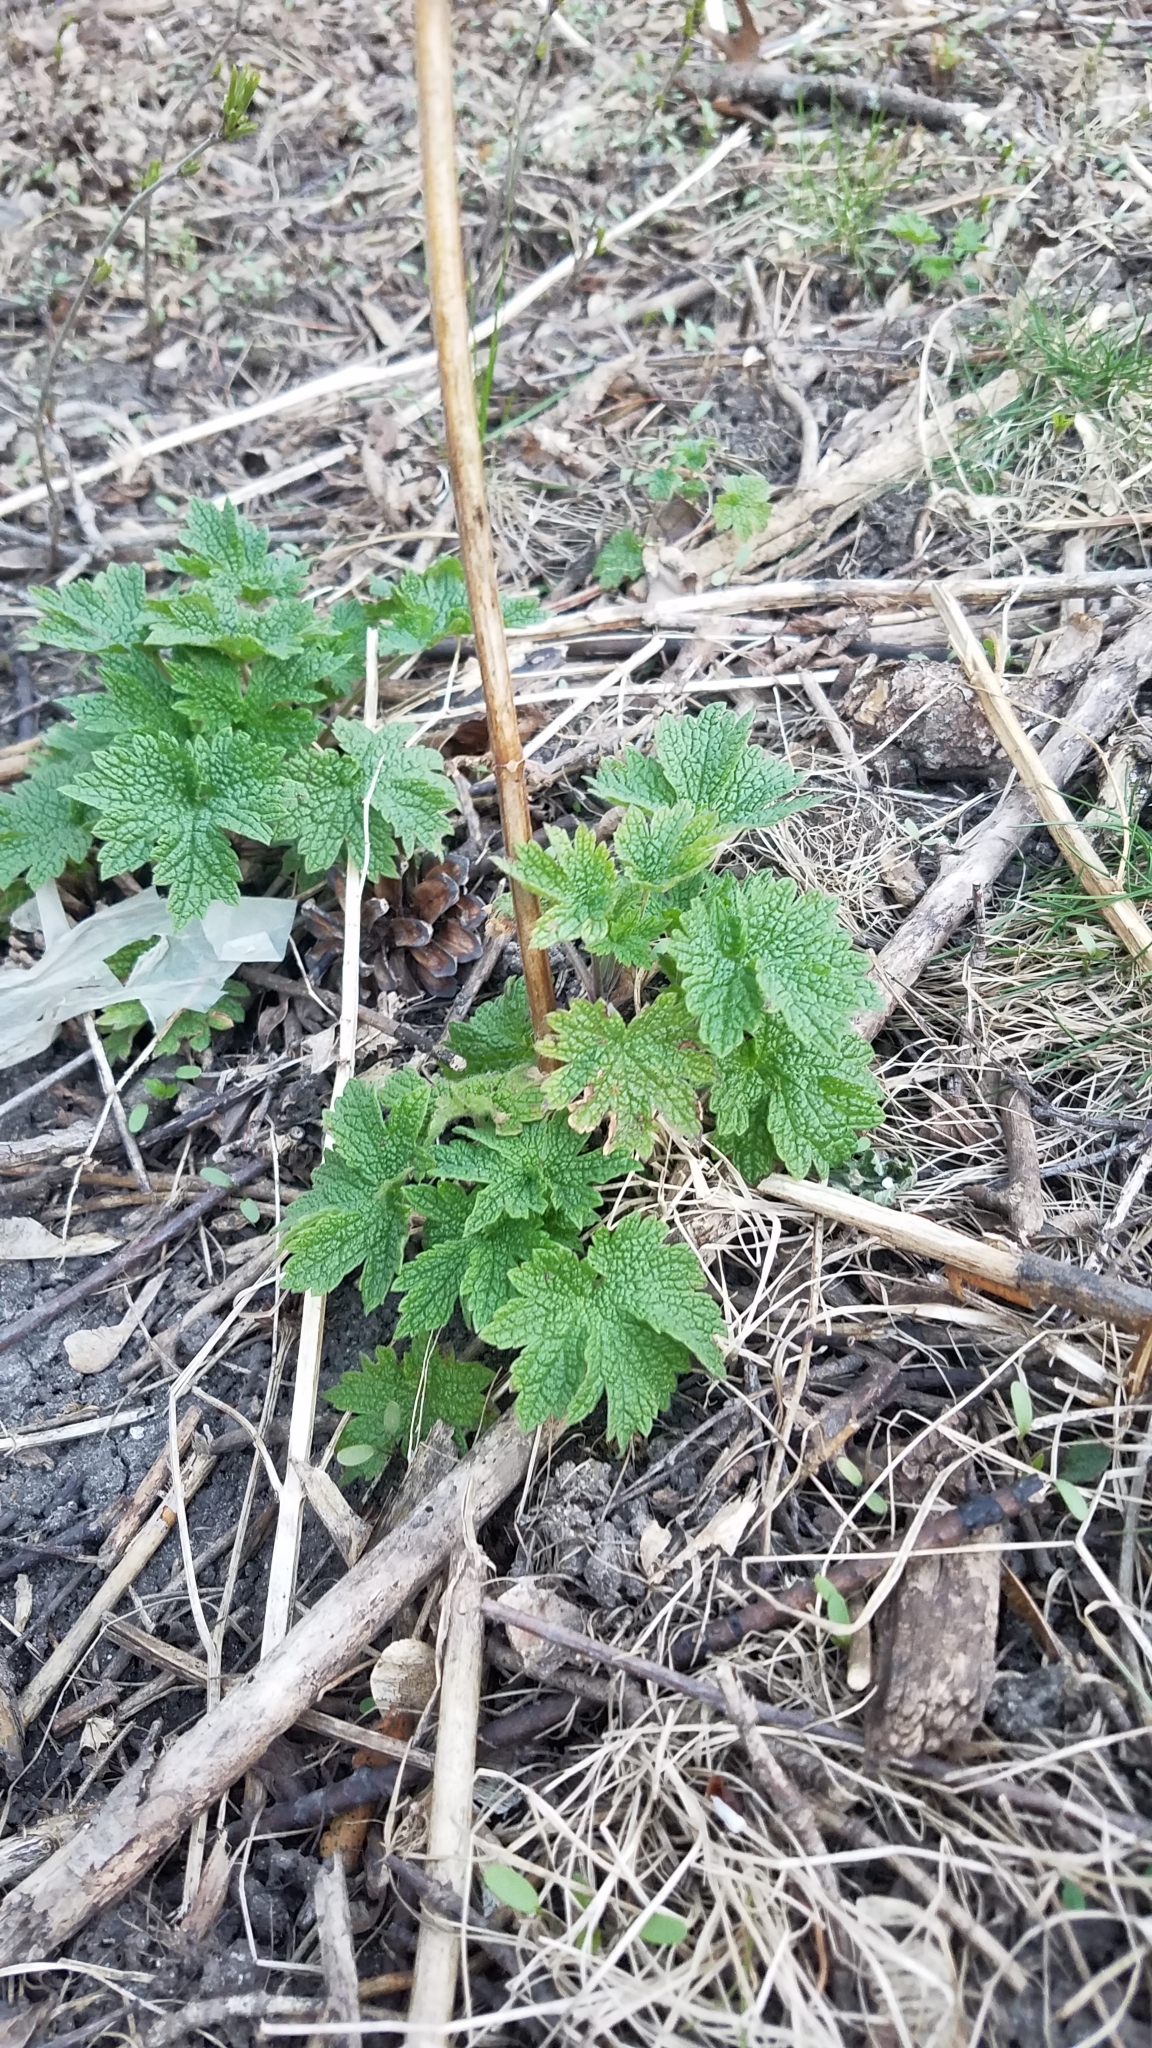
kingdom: Plantae
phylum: Tracheophyta
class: Magnoliopsida
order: Lamiales
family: Lamiaceae
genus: Leonurus
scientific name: Leonurus cardiaca
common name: Motherwort
